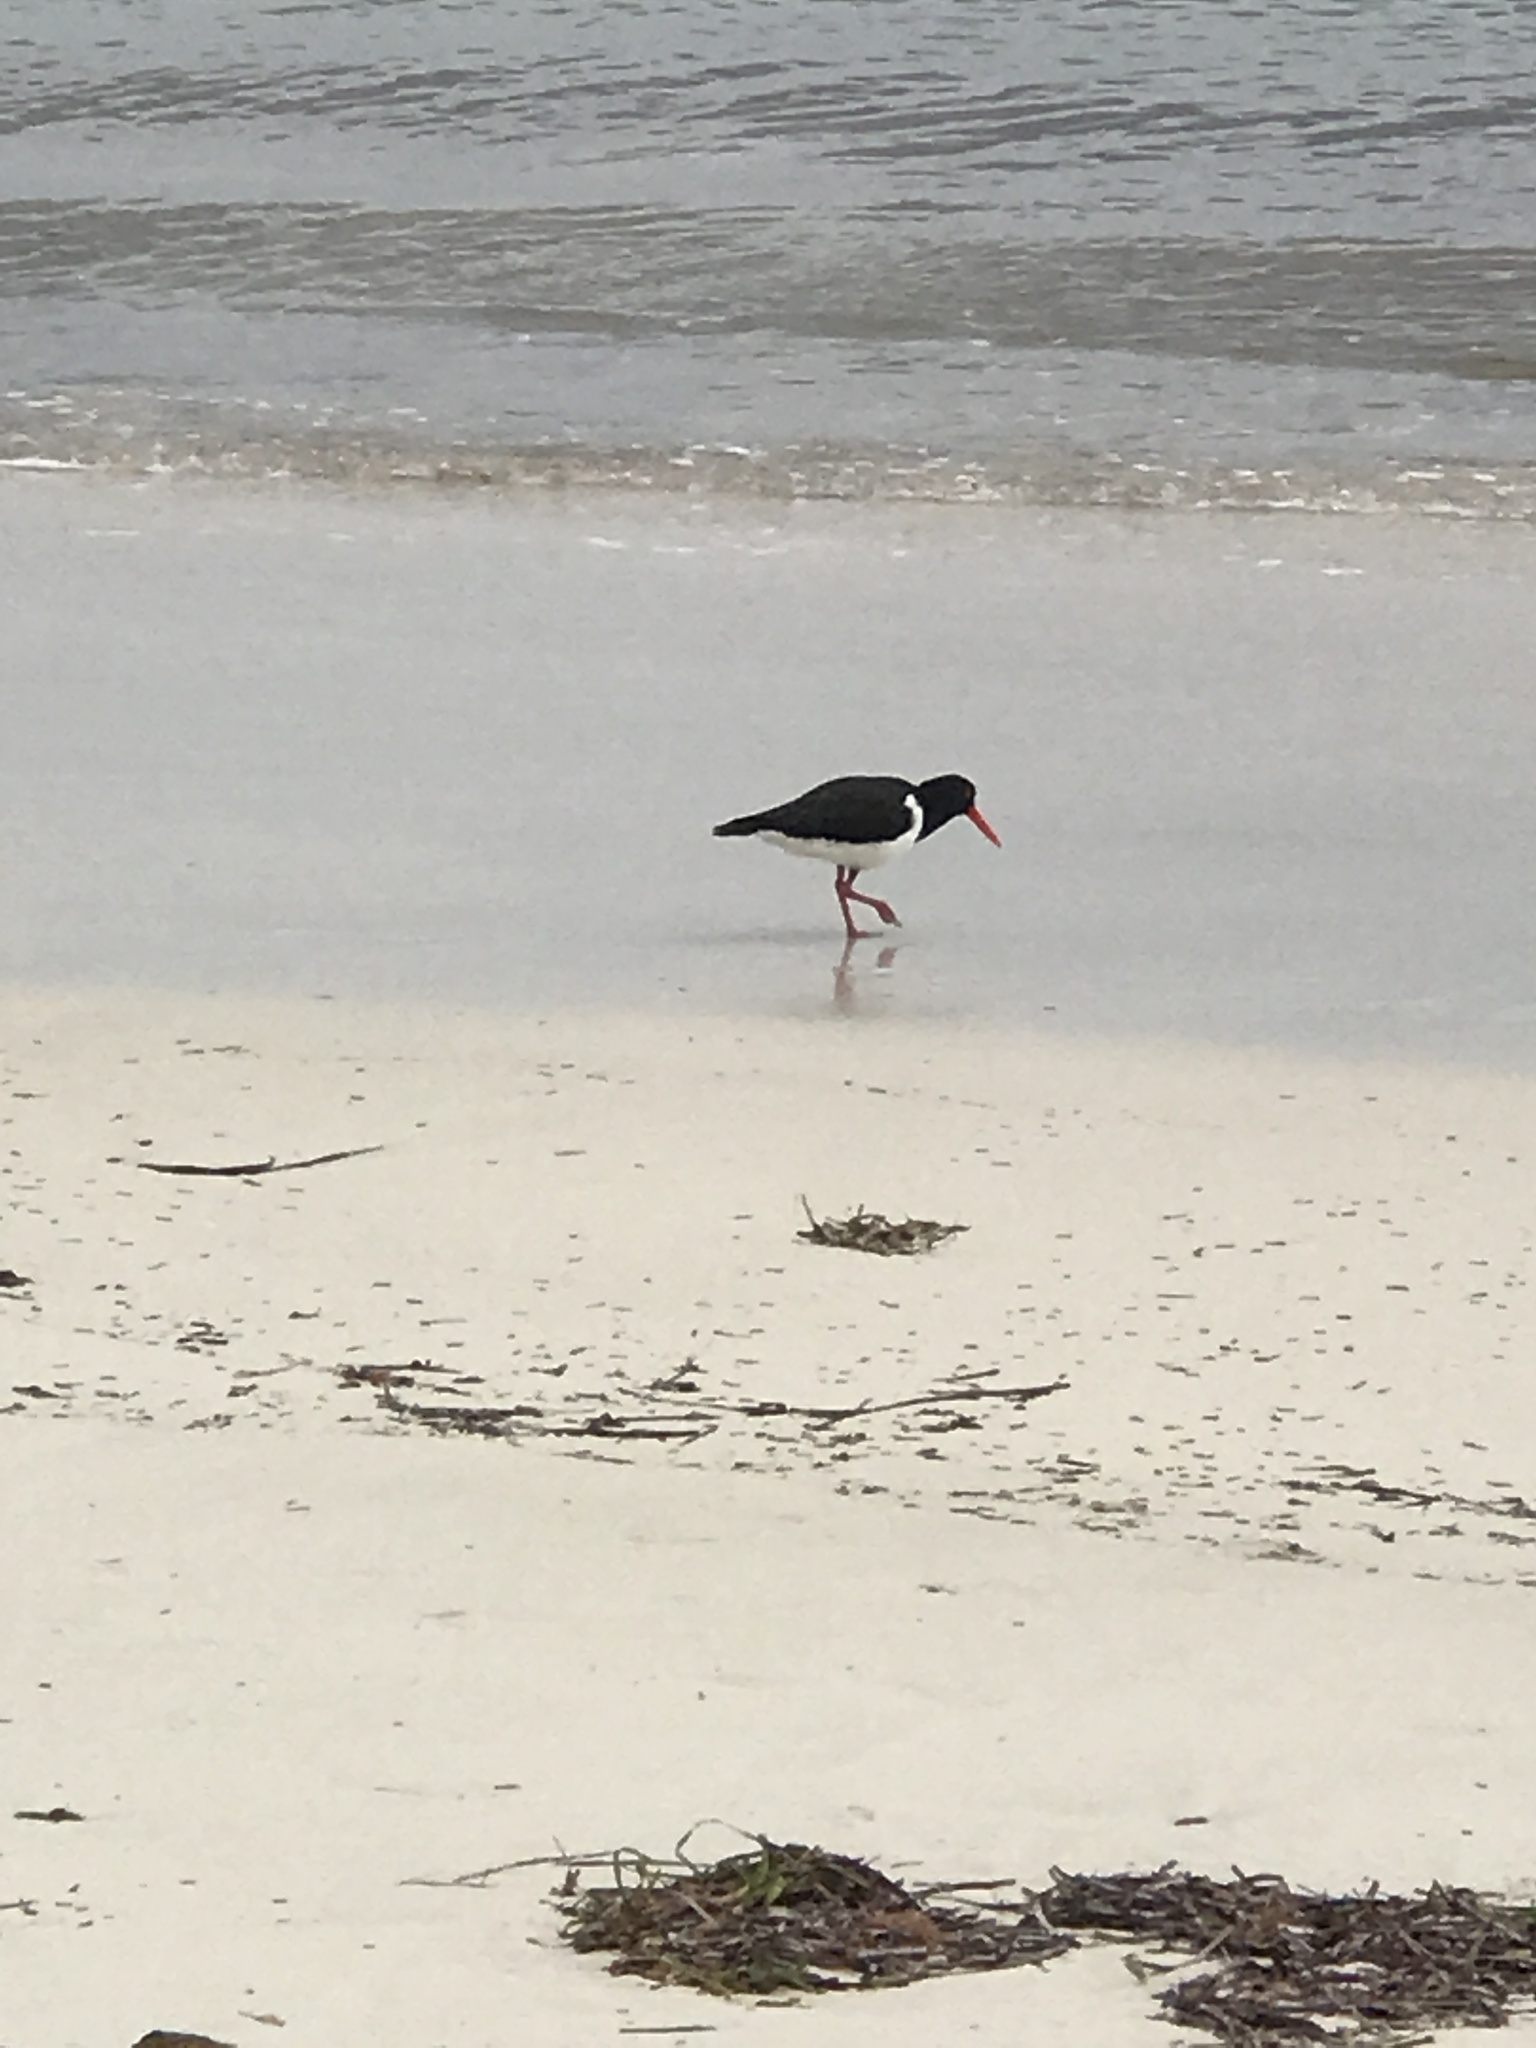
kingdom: Animalia
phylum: Chordata
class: Aves
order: Charadriiformes
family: Haematopodidae
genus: Haematopus
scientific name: Haematopus longirostris
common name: Pied oystercatcher
